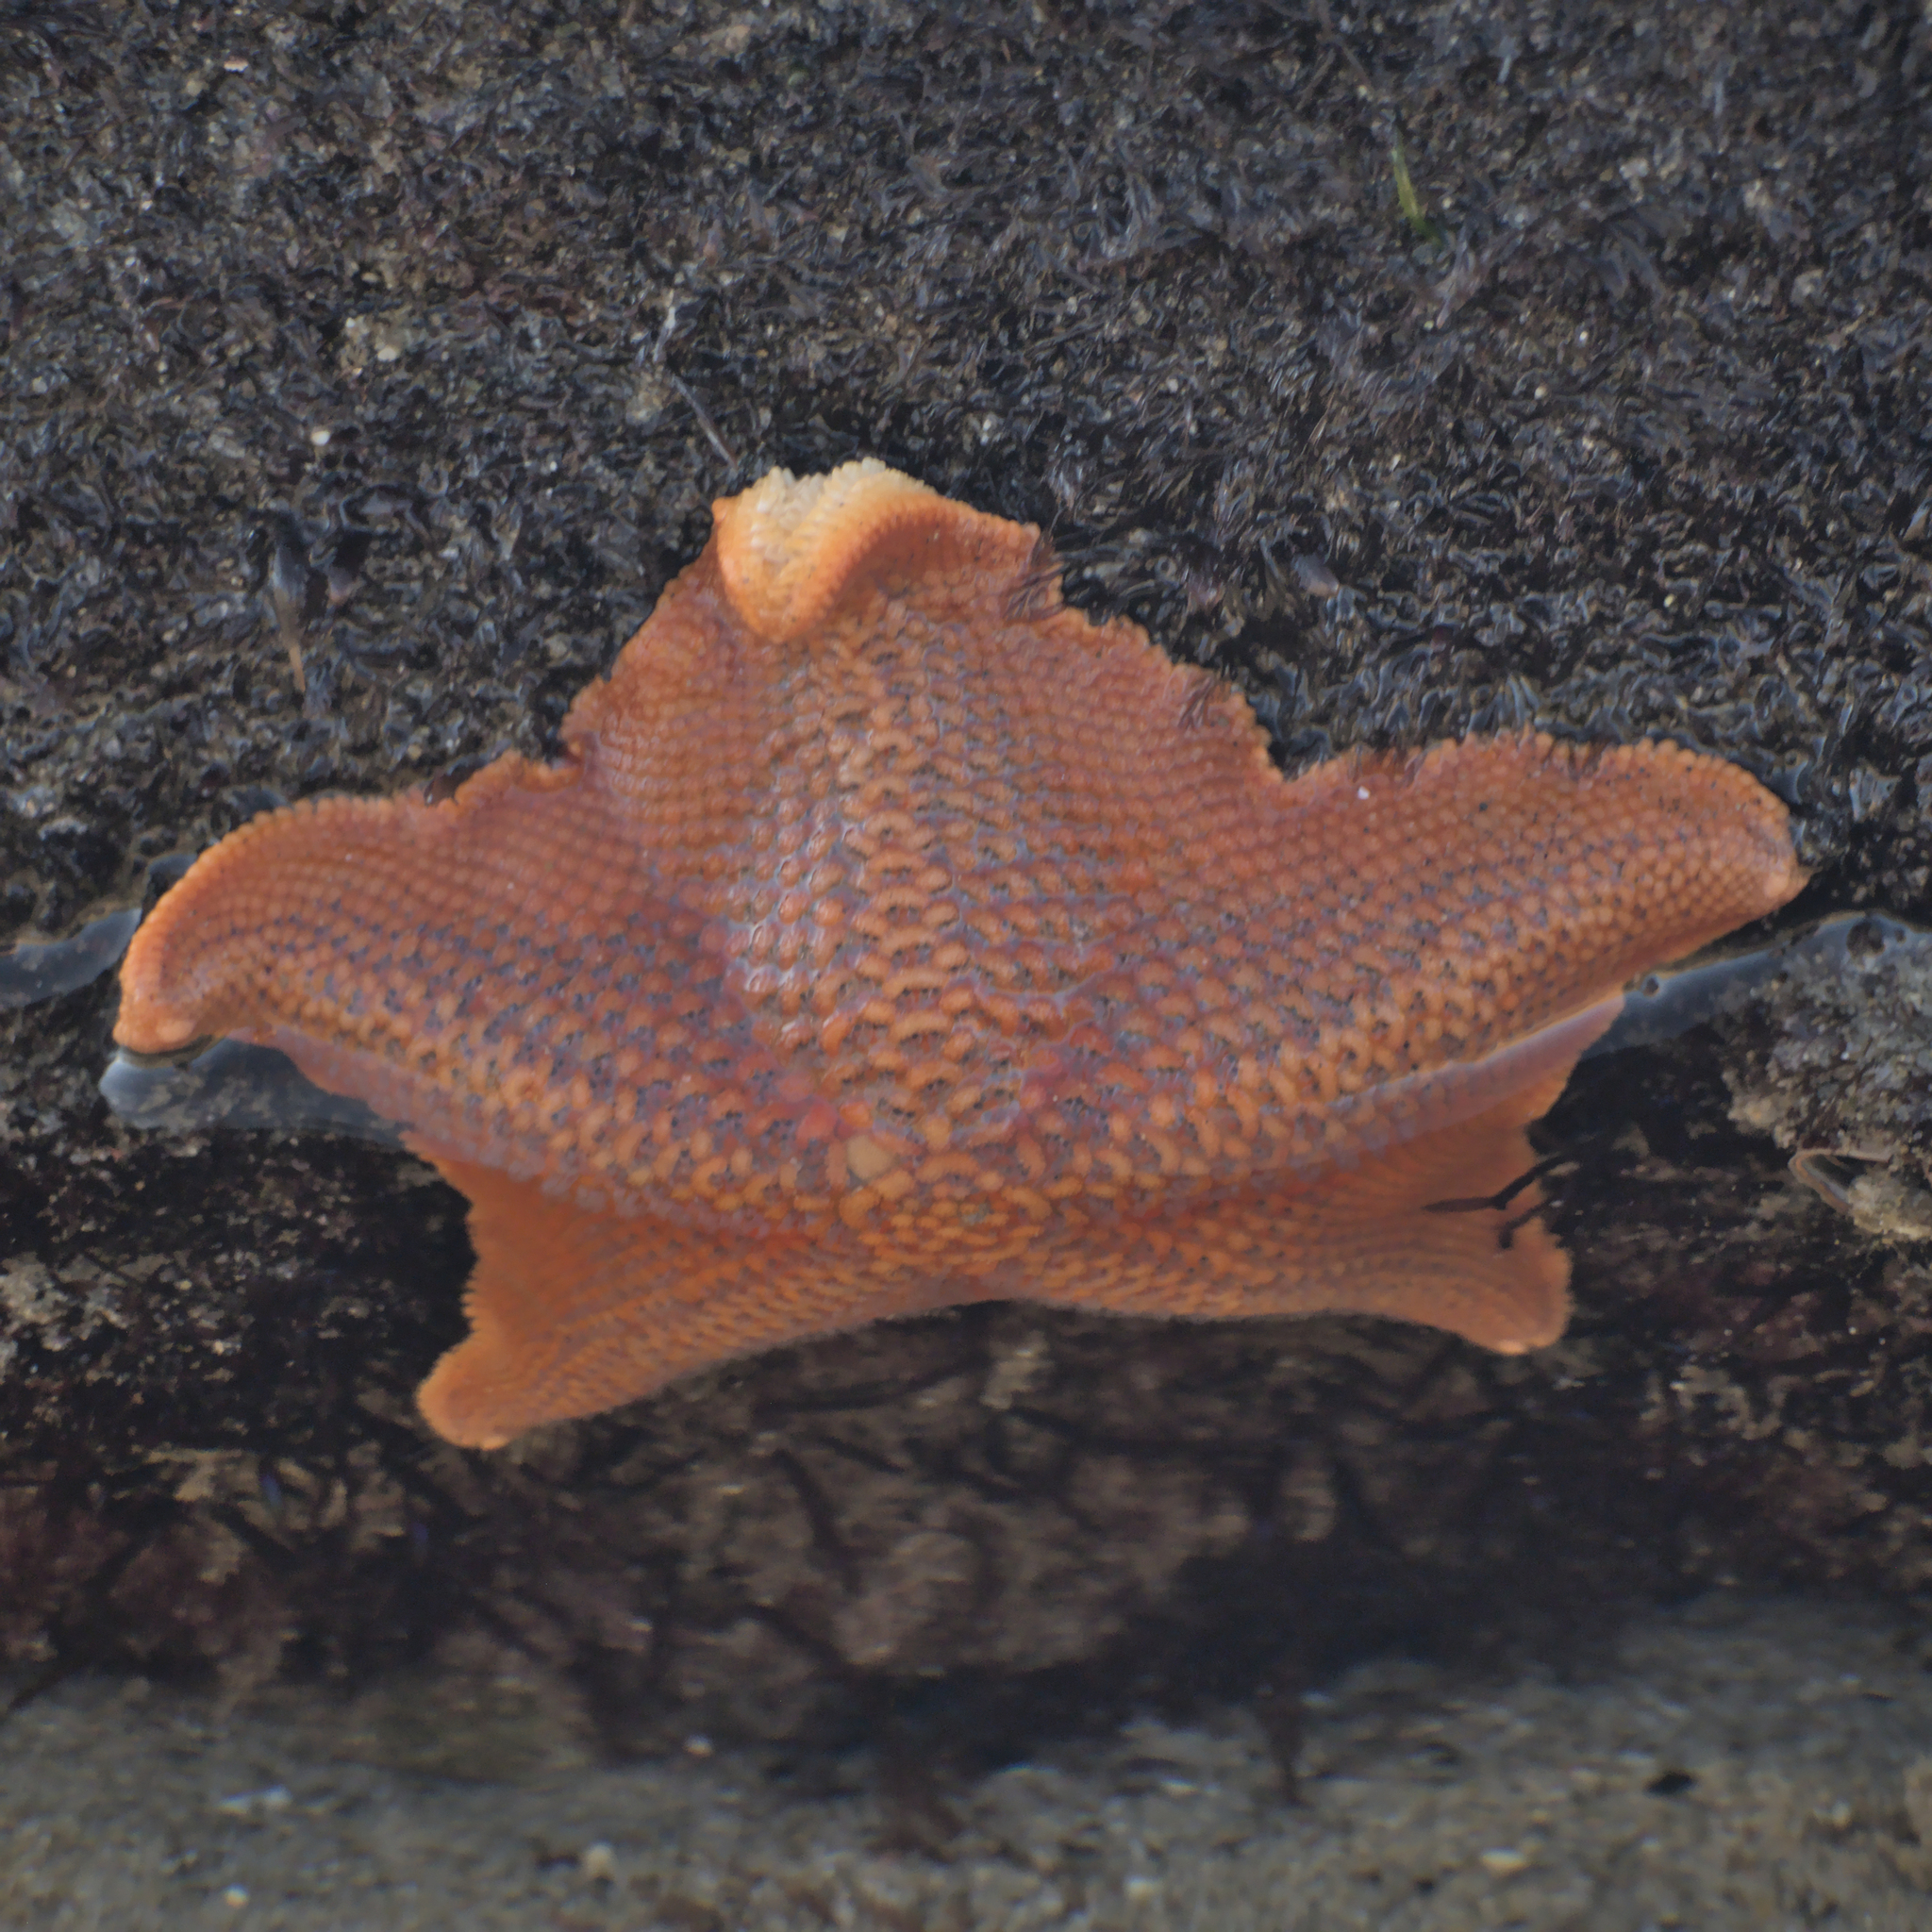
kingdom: Animalia
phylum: Echinodermata
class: Asteroidea
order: Valvatida
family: Asterinidae
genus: Patiria
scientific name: Patiria miniata
